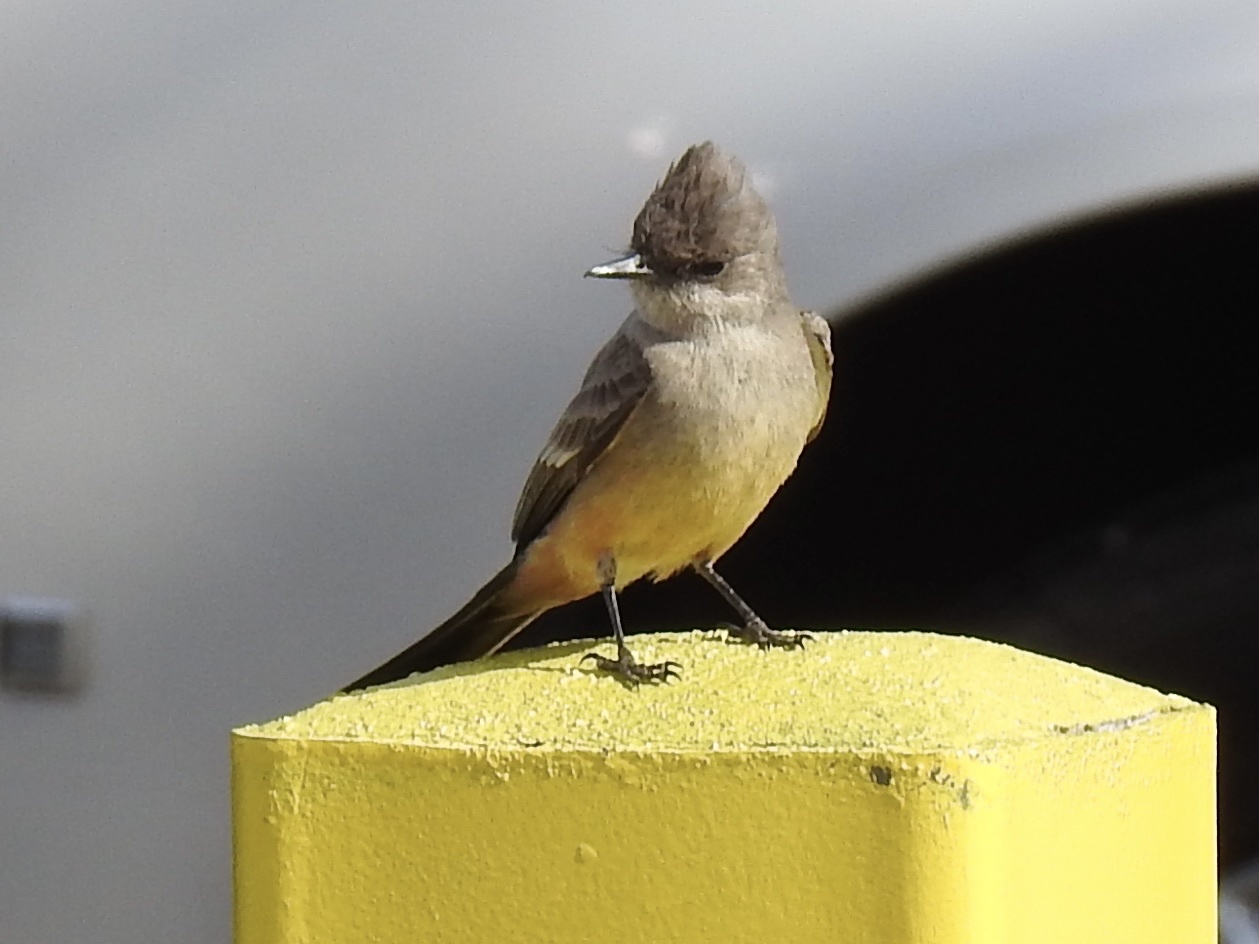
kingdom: Animalia
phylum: Chordata
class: Aves
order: Passeriformes
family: Tyrannidae
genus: Sayornis
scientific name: Sayornis saya
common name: Say's phoebe
